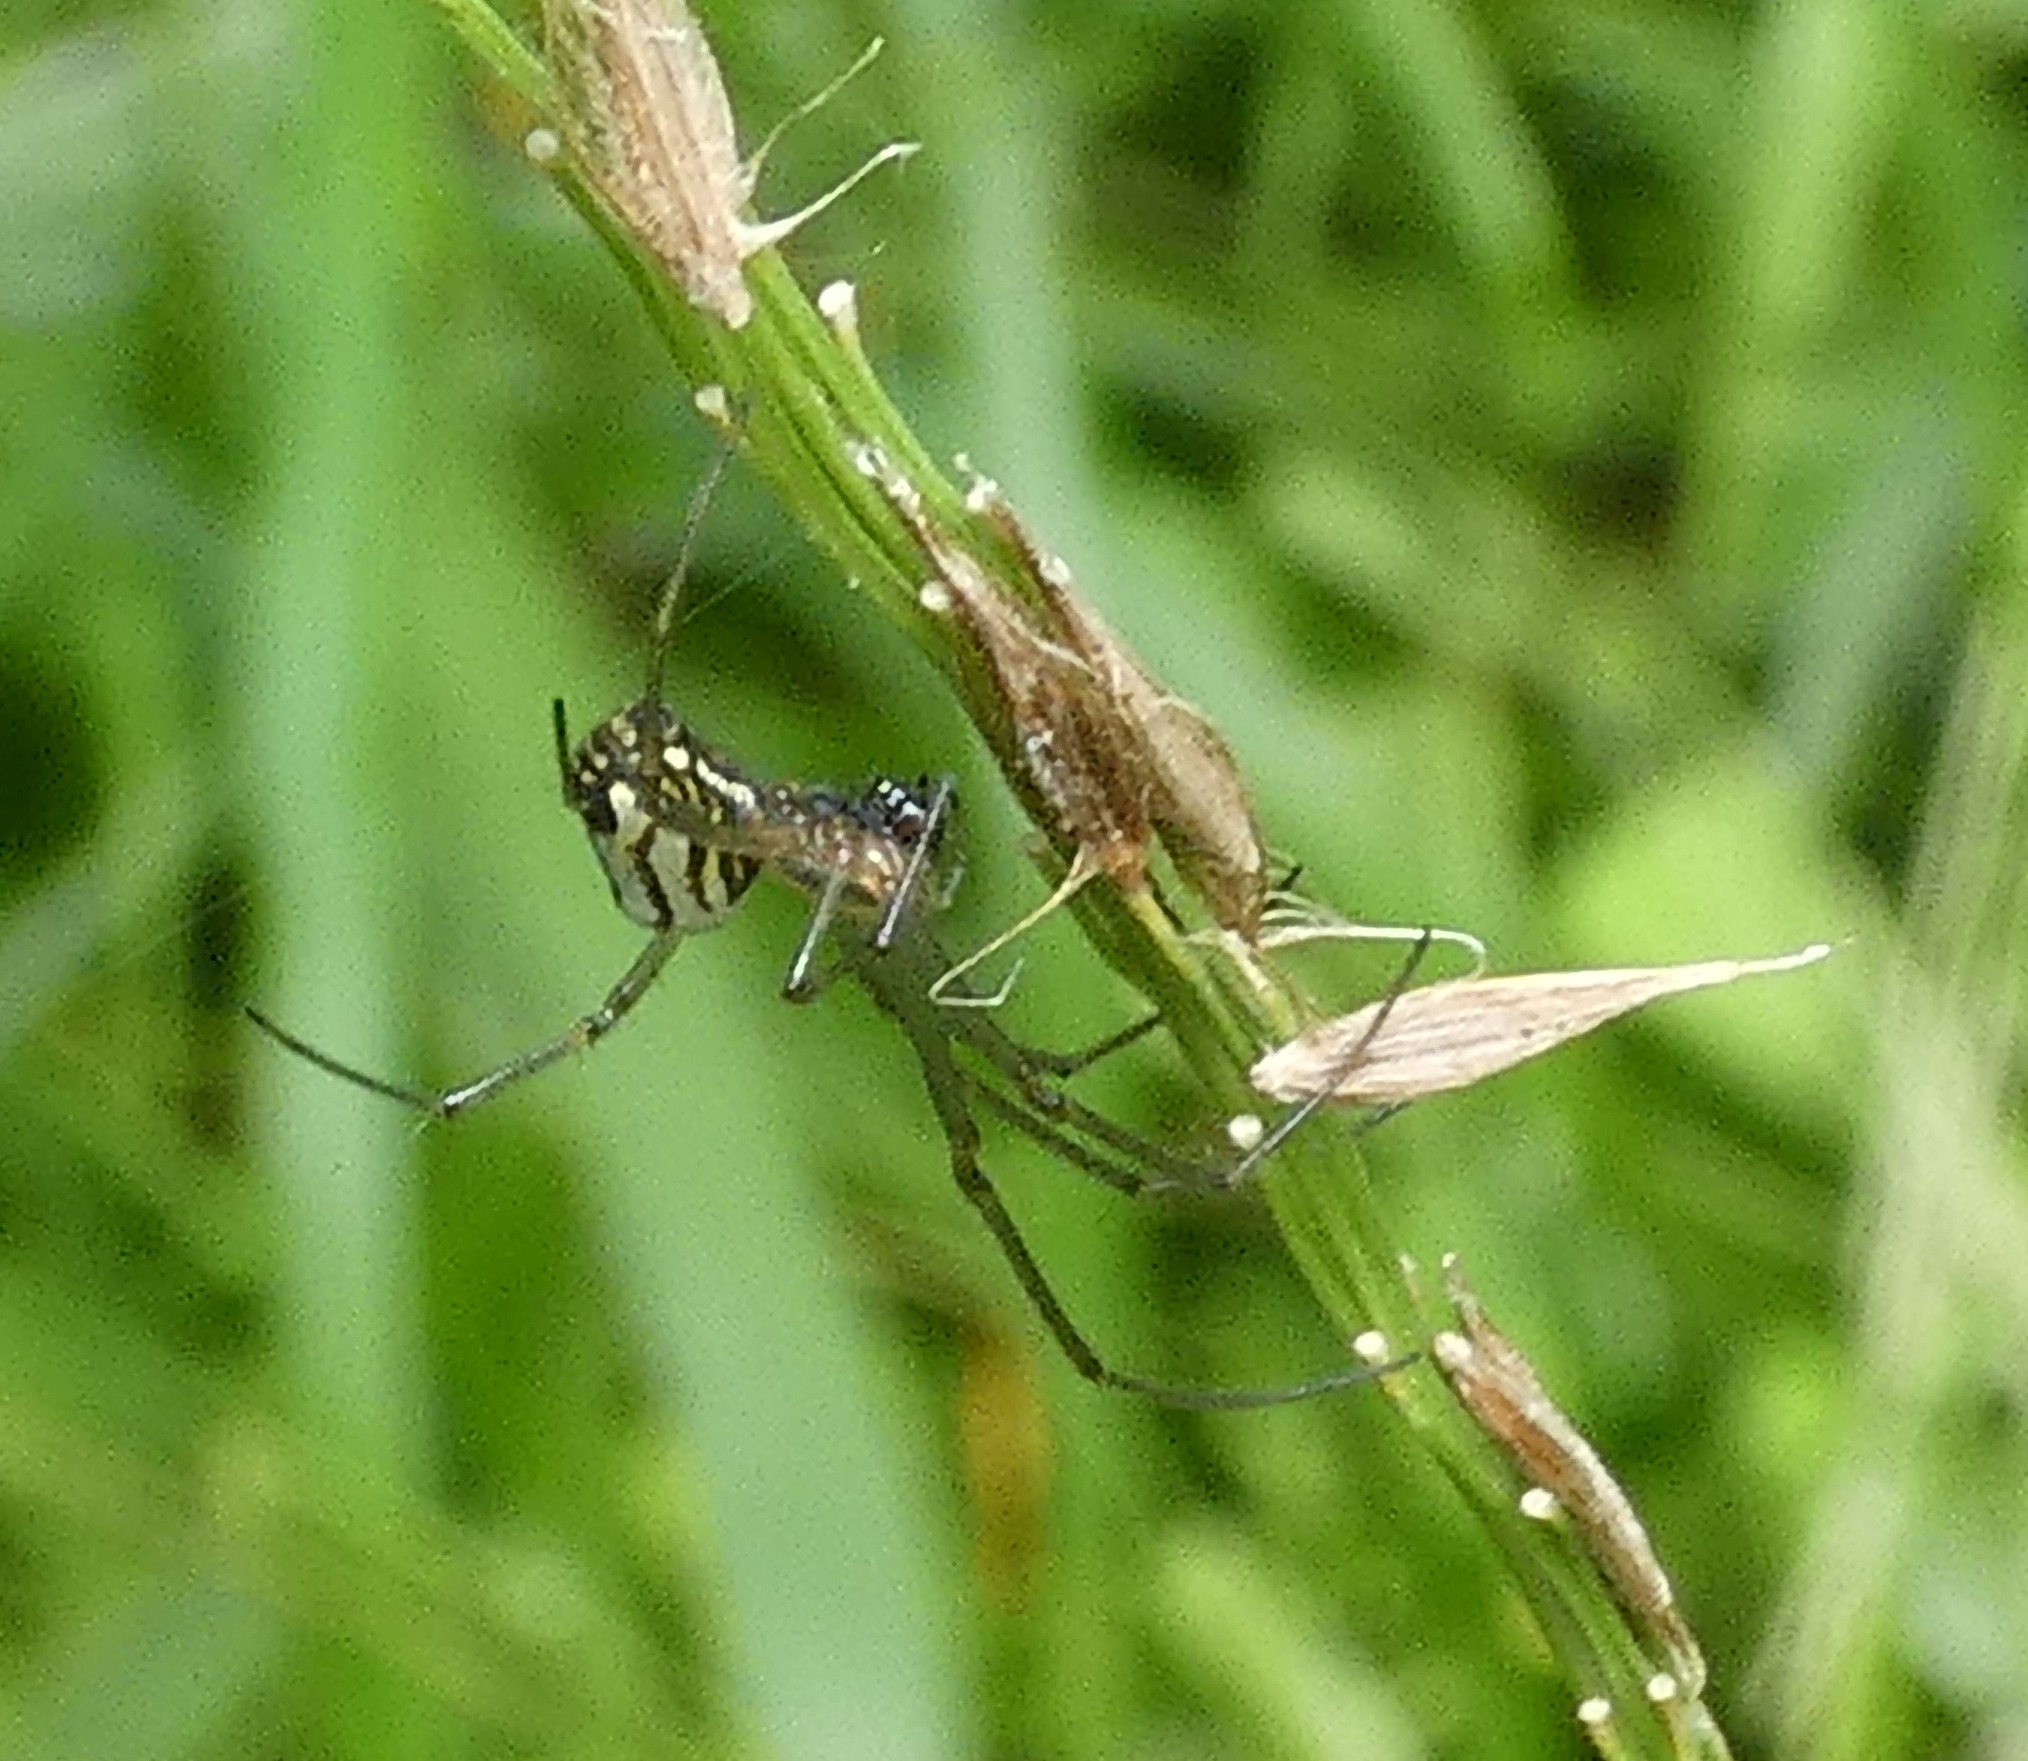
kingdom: Animalia
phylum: Arthropoda
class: Arachnida
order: Araneae
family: Tetragnathidae
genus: Leucauge
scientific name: Leucauge volupis
